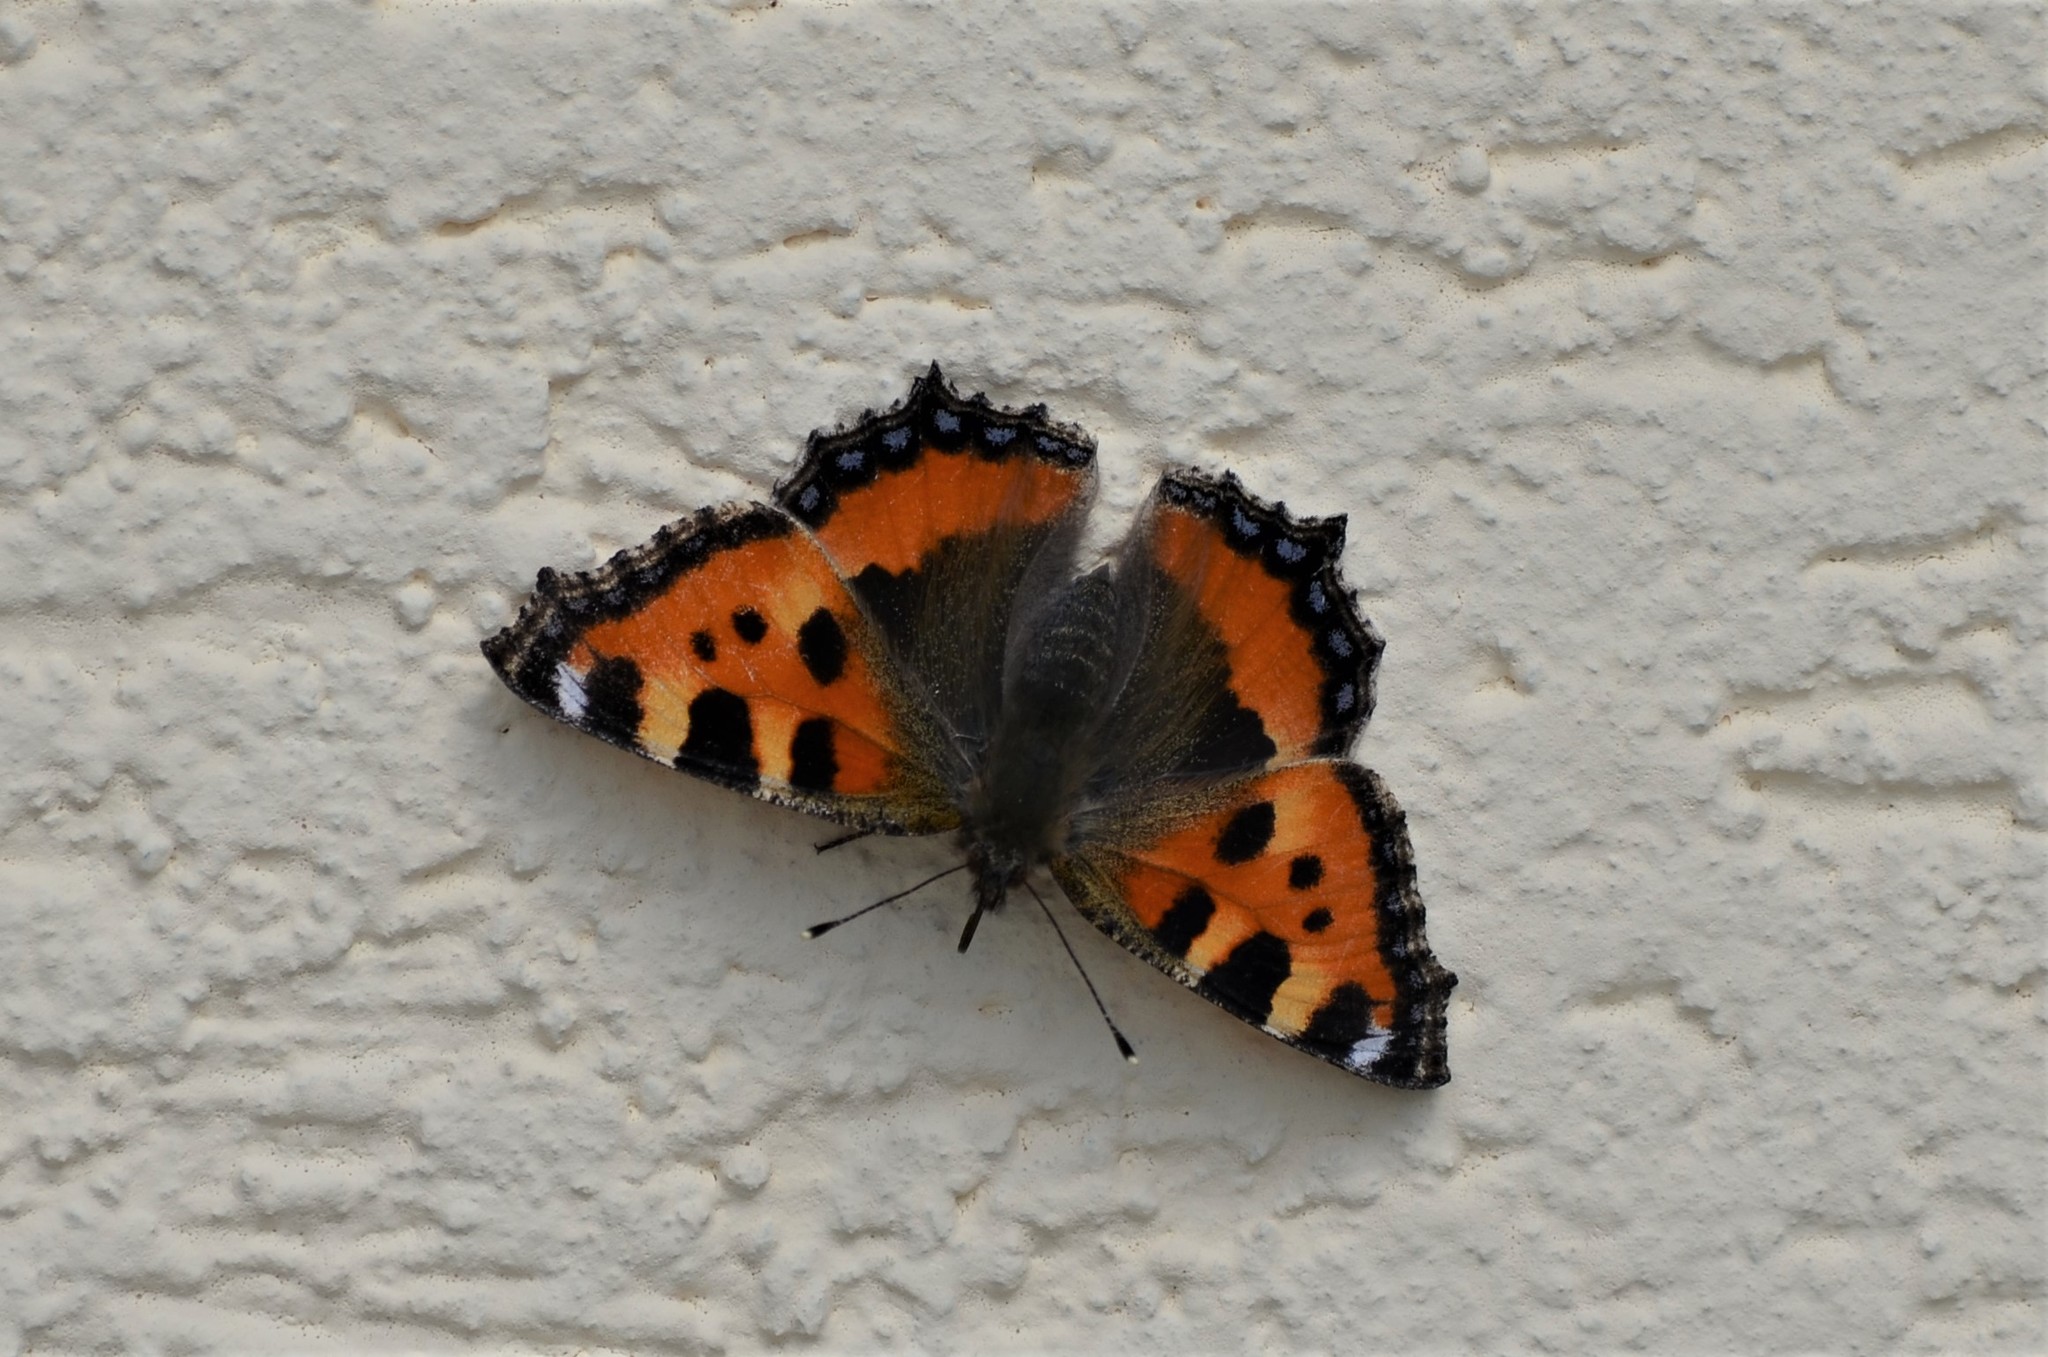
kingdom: Animalia
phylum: Arthropoda
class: Insecta
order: Lepidoptera
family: Nymphalidae
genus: Aglais
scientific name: Aglais urticae
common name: Small tortoiseshell
